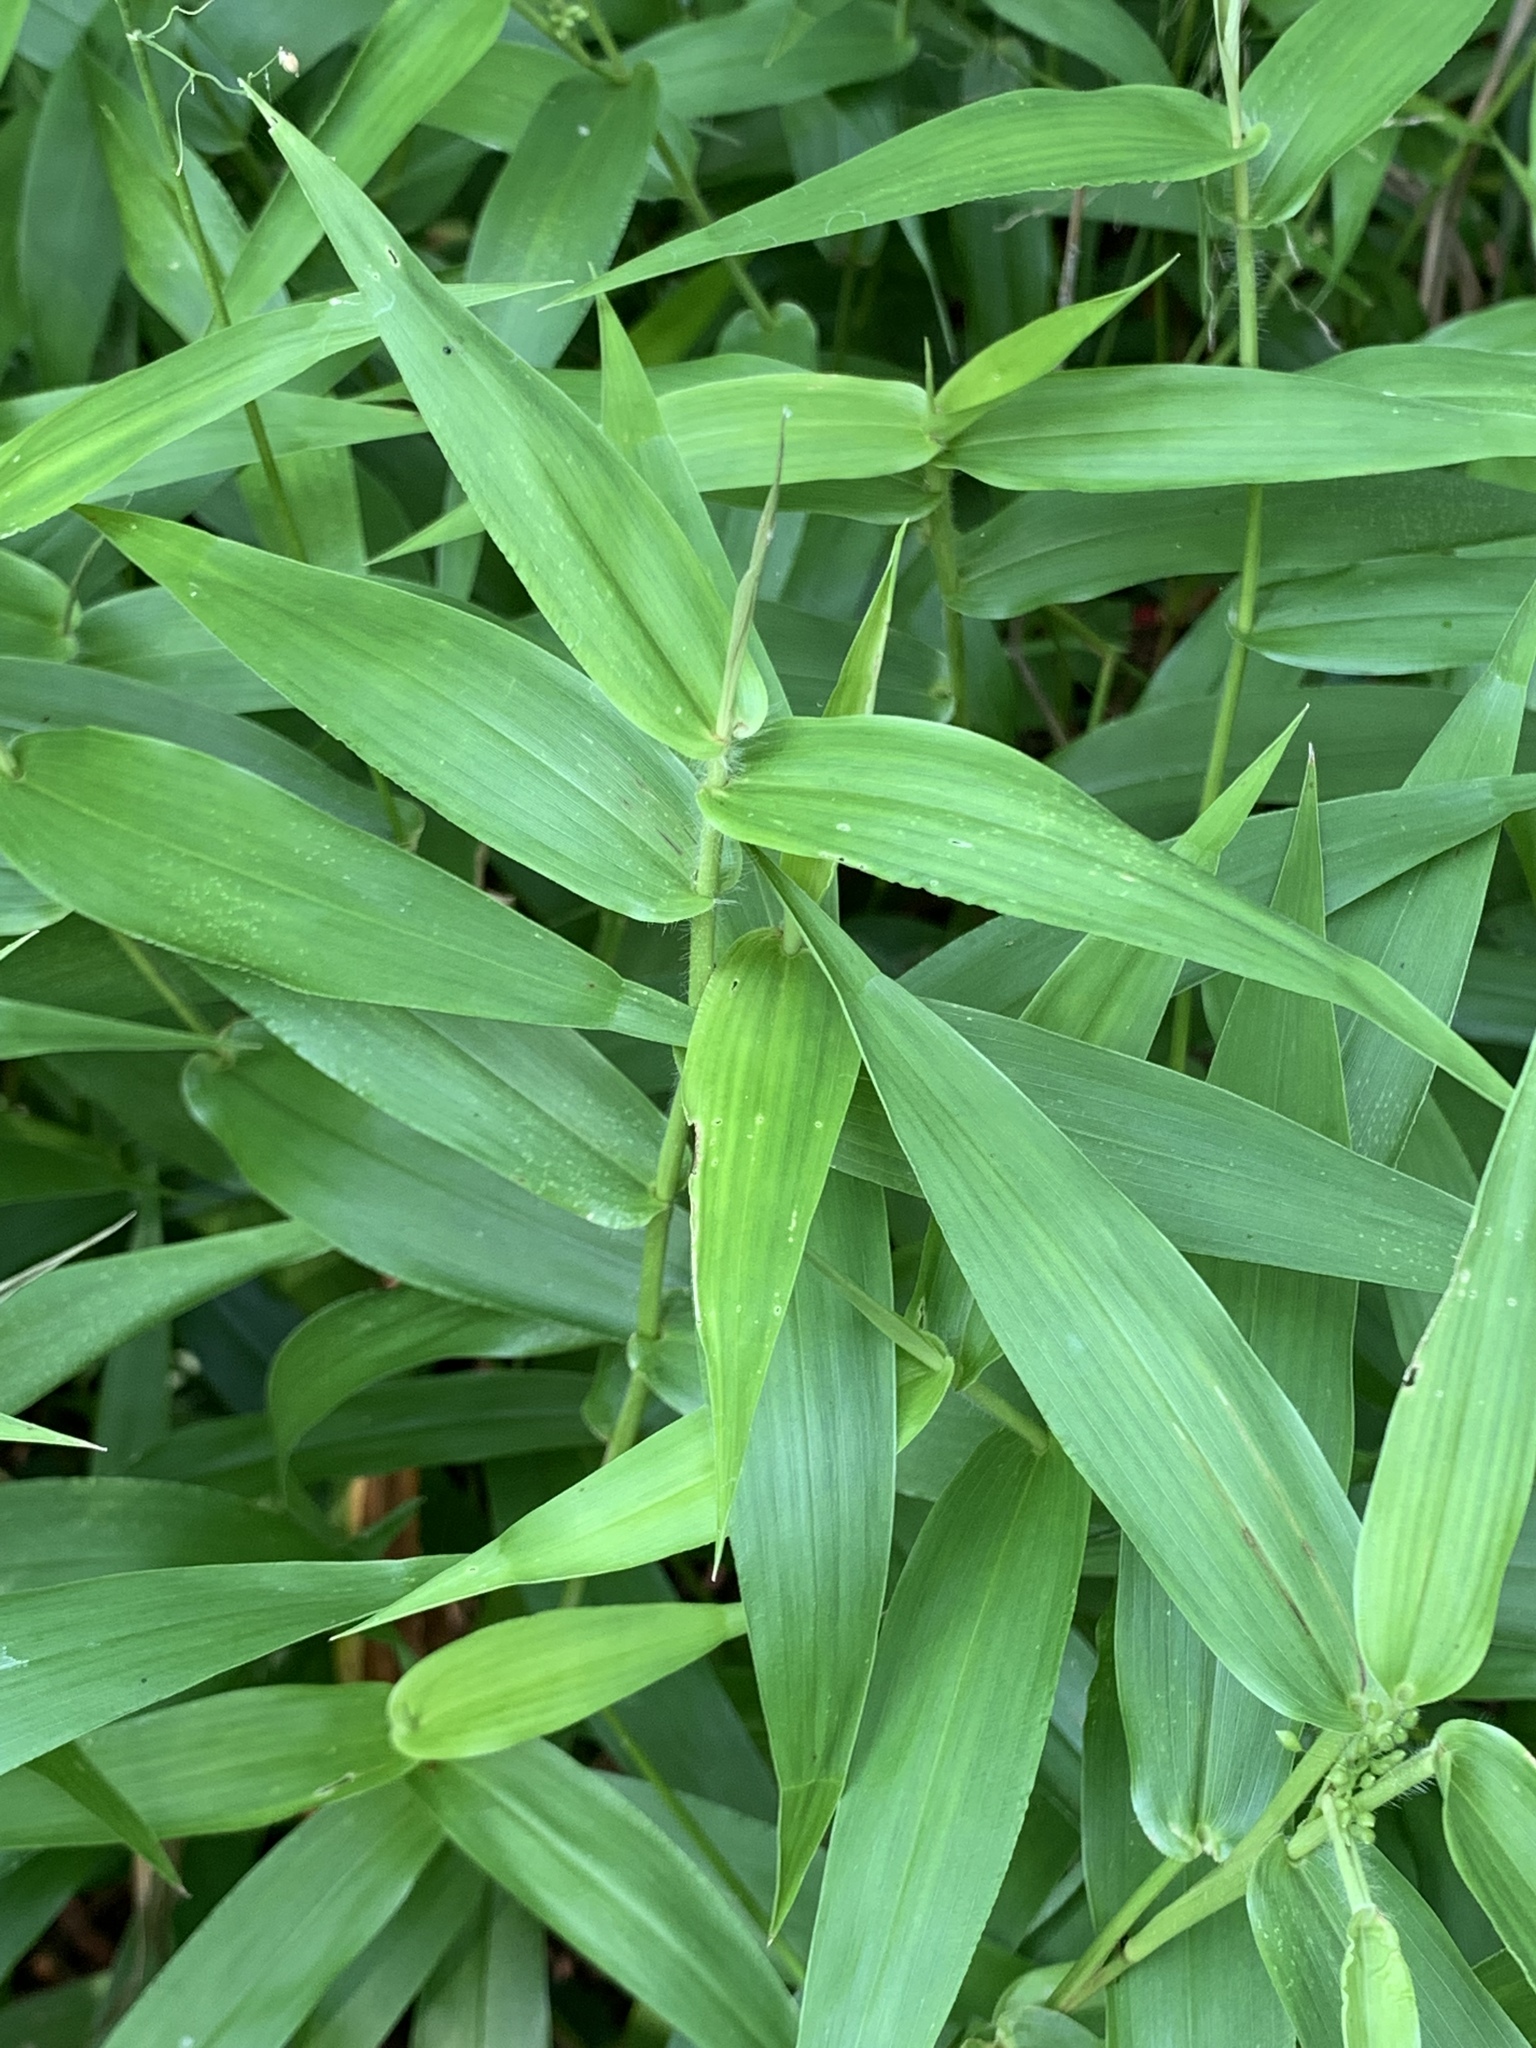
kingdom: Plantae
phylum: Tracheophyta
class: Liliopsida
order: Poales
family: Poaceae
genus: Dichanthelium
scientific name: Dichanthelium clandestinum
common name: Deer-tongue grass
